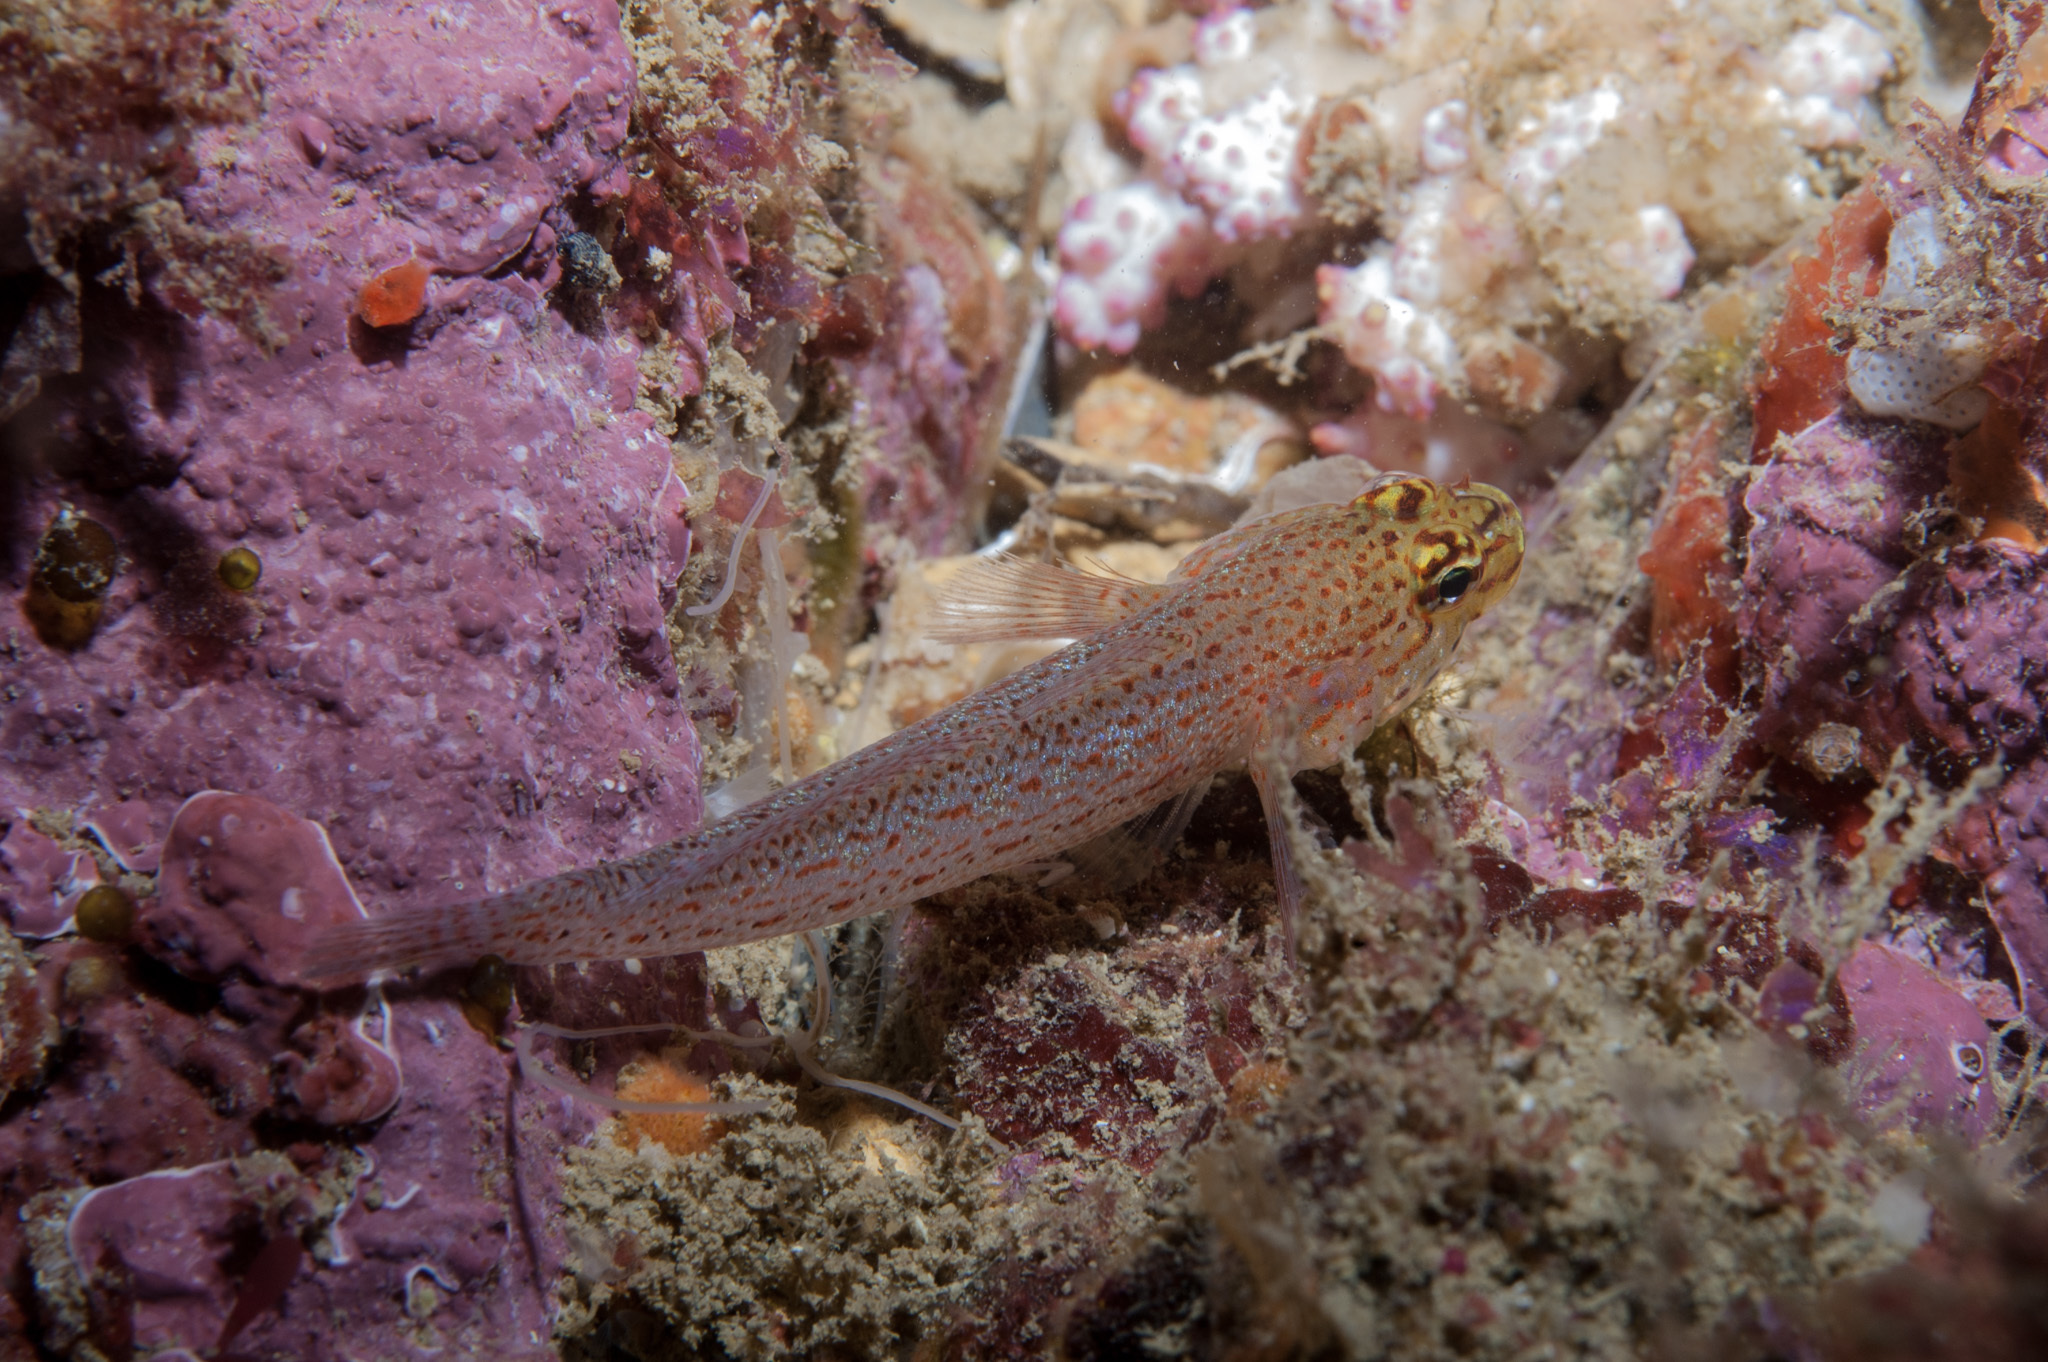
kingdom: Animalia
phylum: Chordata
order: Perciformes
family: Gobiidae
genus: Gobius
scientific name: Gobius xanthocephalus
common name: Golden goby
